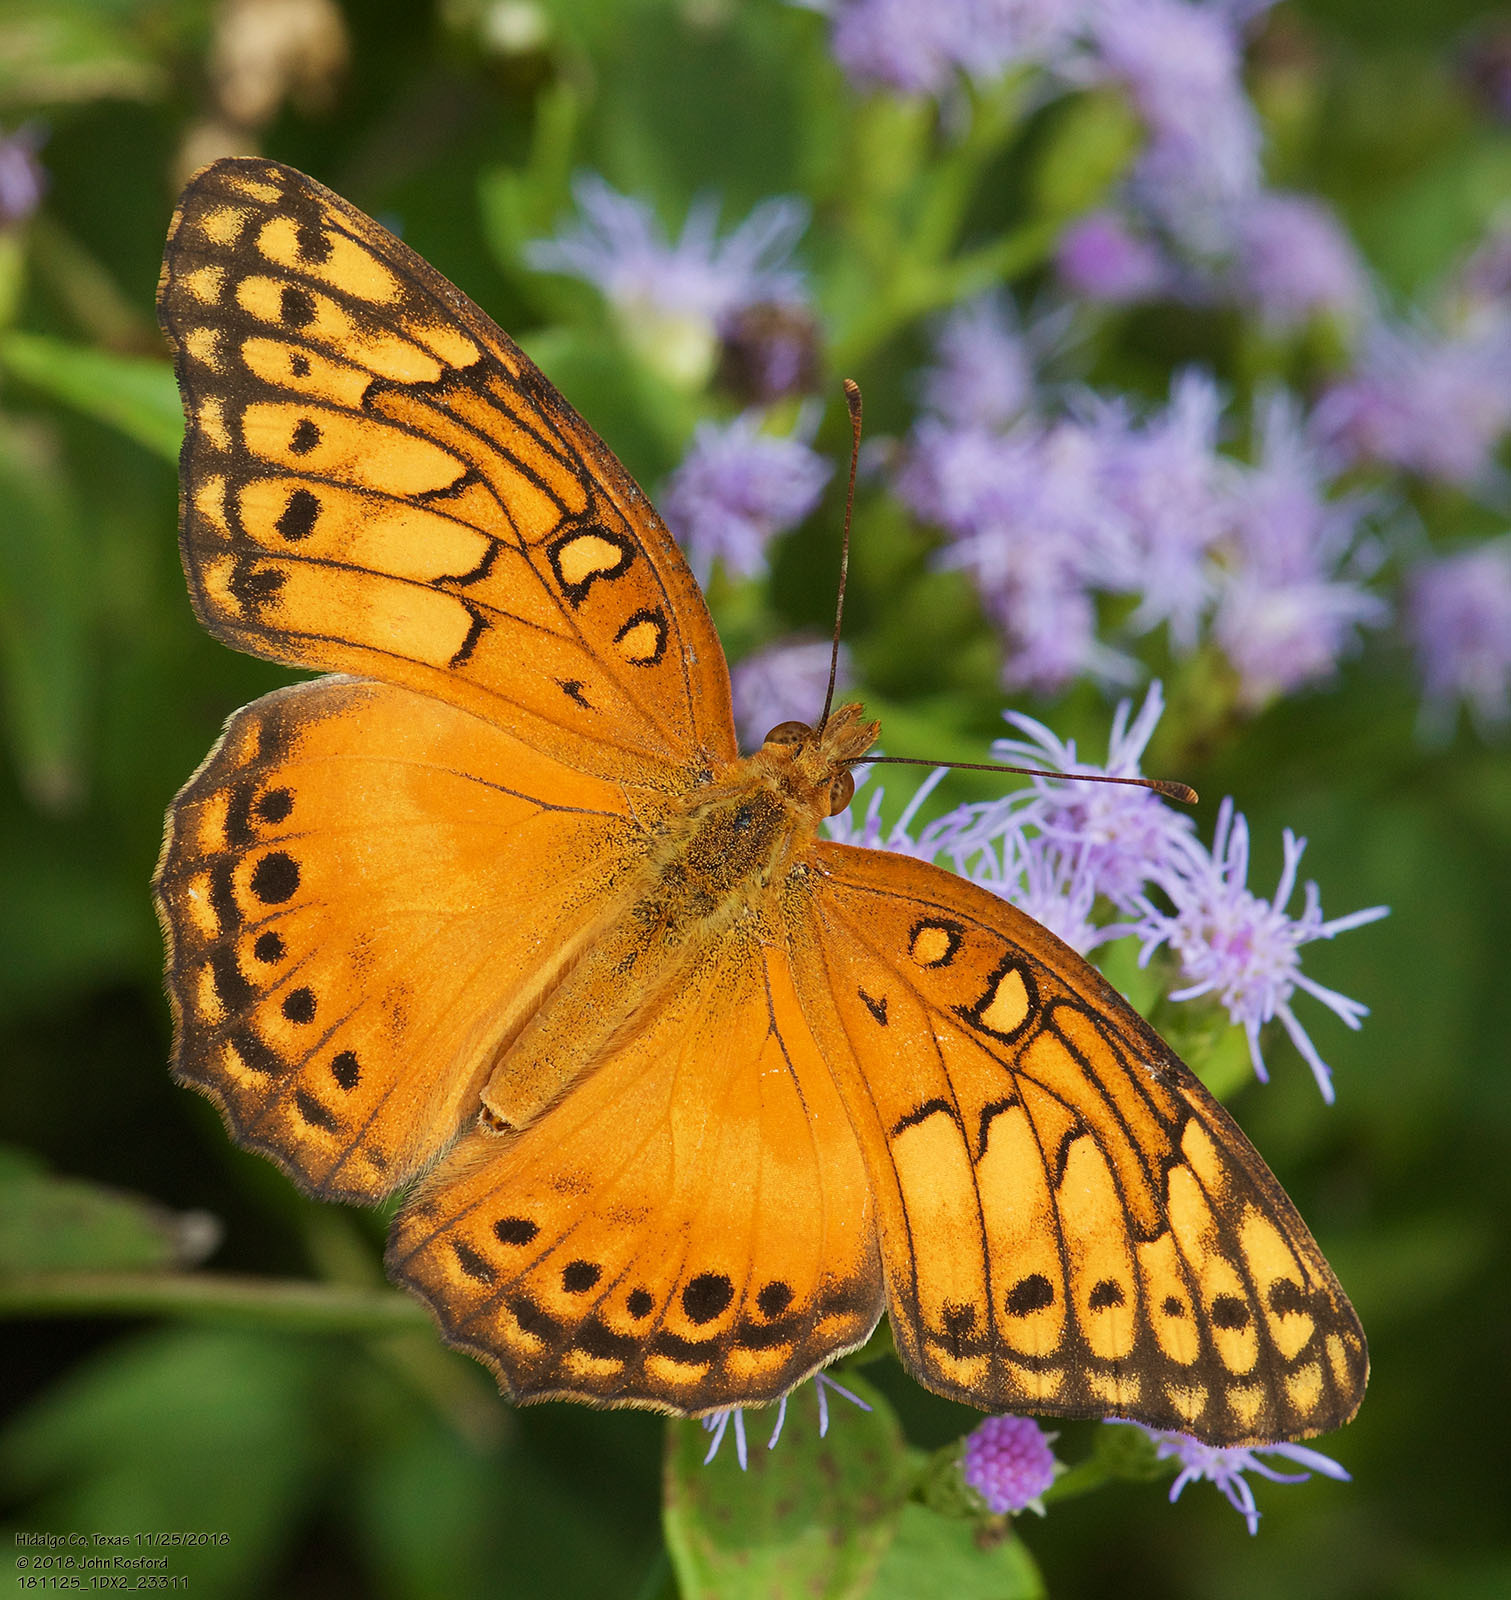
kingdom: Animalia
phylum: Arthropoda
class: Insecta
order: Lepidoptera
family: Nymphalidae
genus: Euptoieta
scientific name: Euptoieta hegesia
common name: Mexican fritillary
